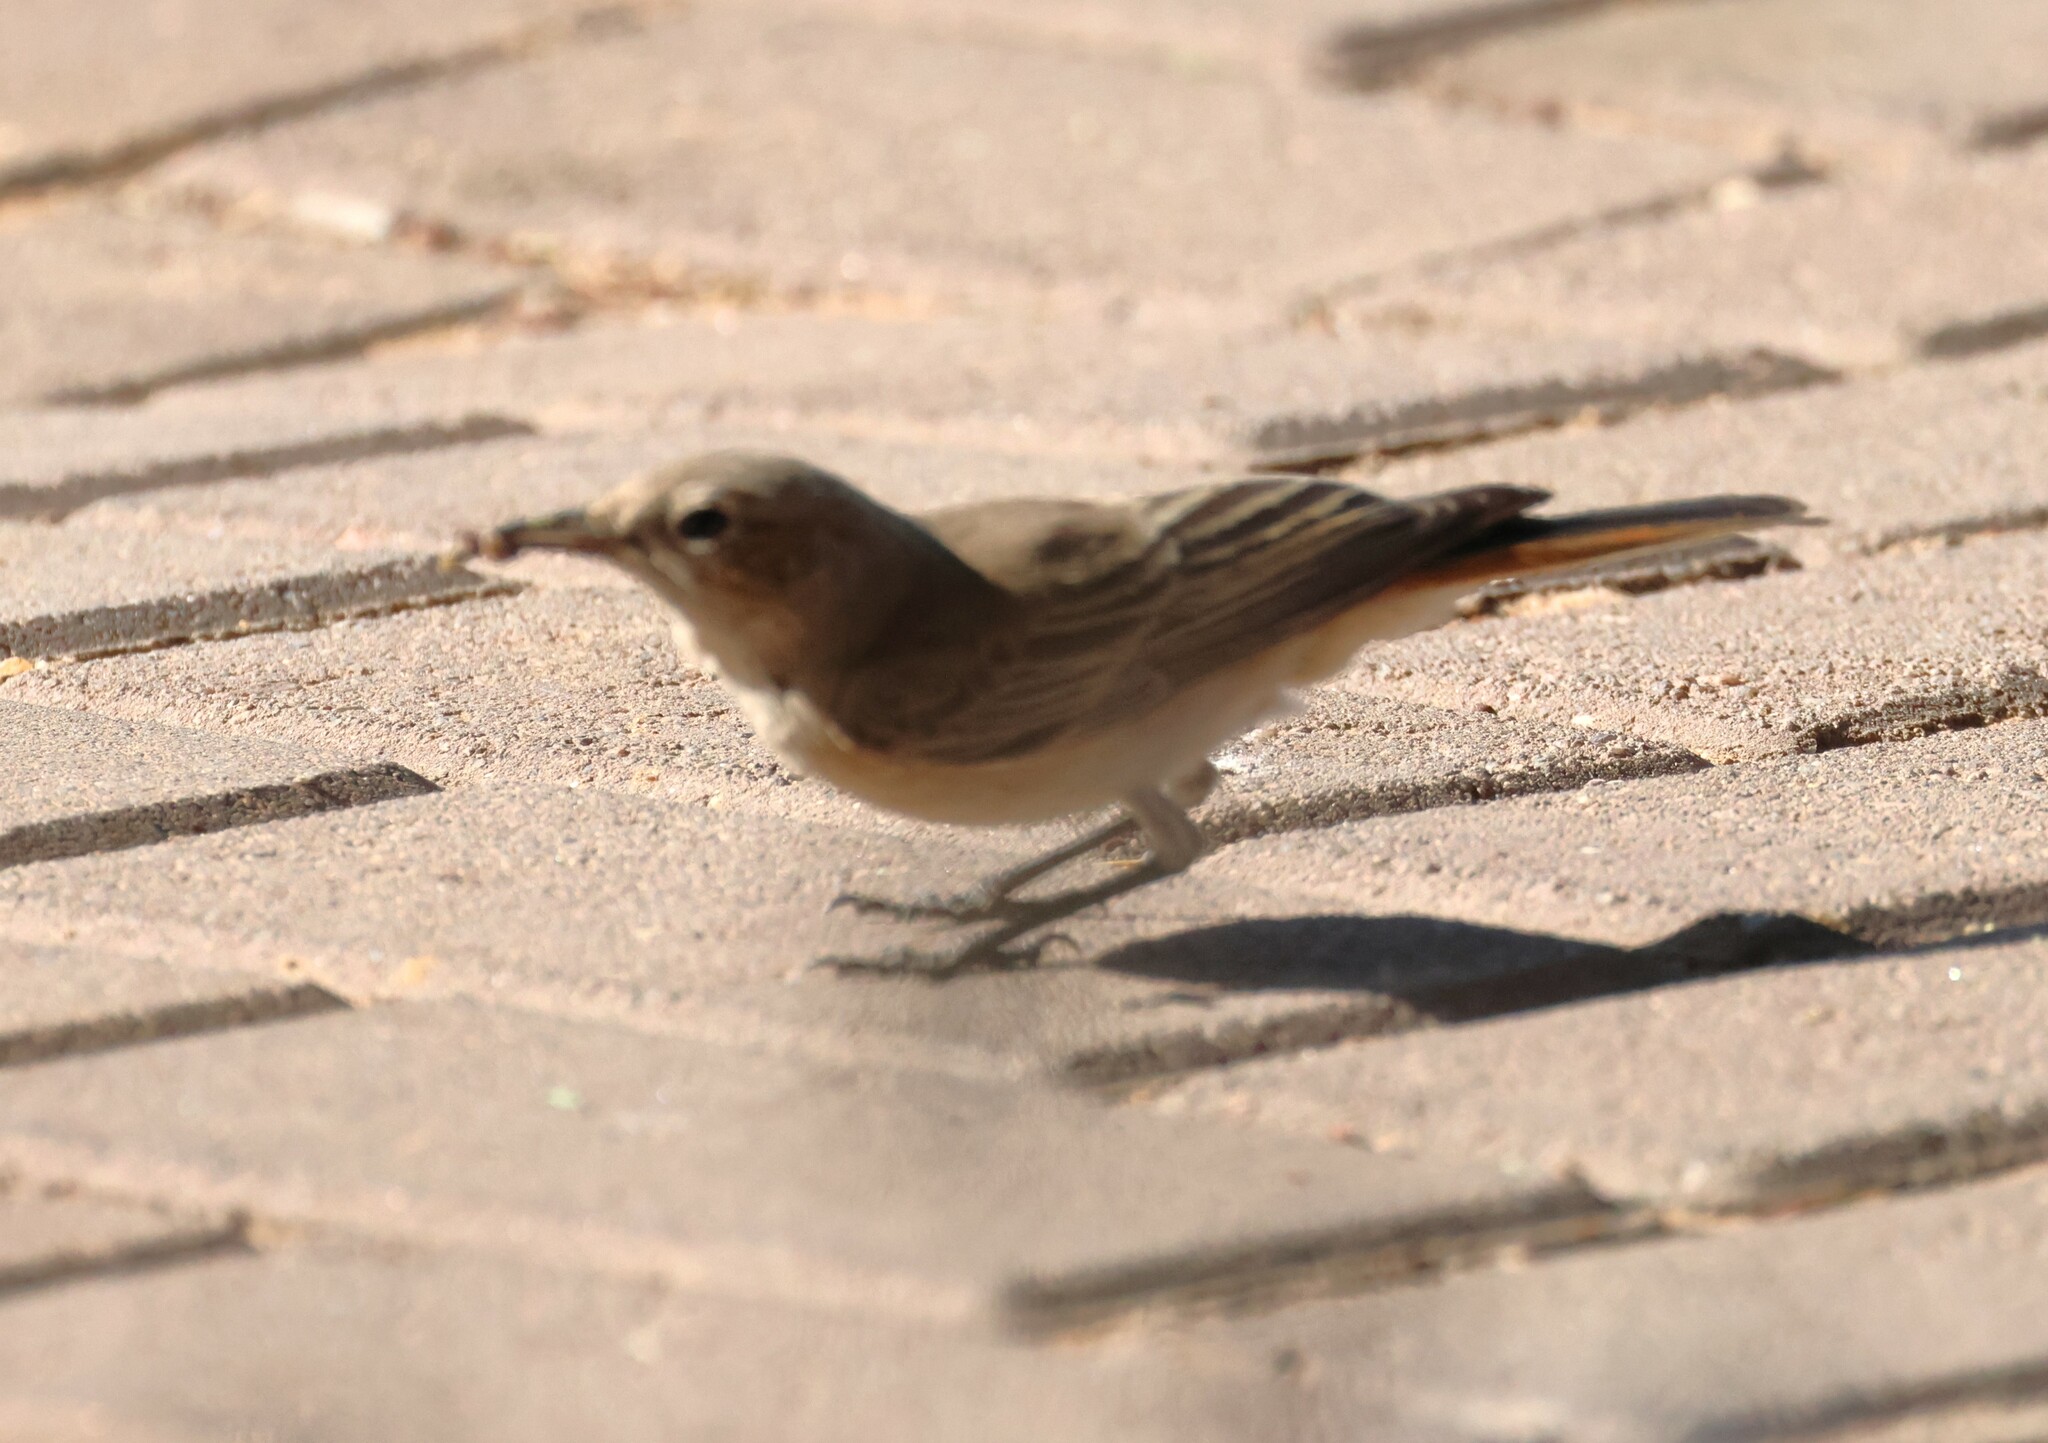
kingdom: Animalia
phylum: Chordata
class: Aves
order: Passeriformes
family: Muscicapidae
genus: Oenanthe
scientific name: Oenanthe familiaris
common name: Familiar chat
